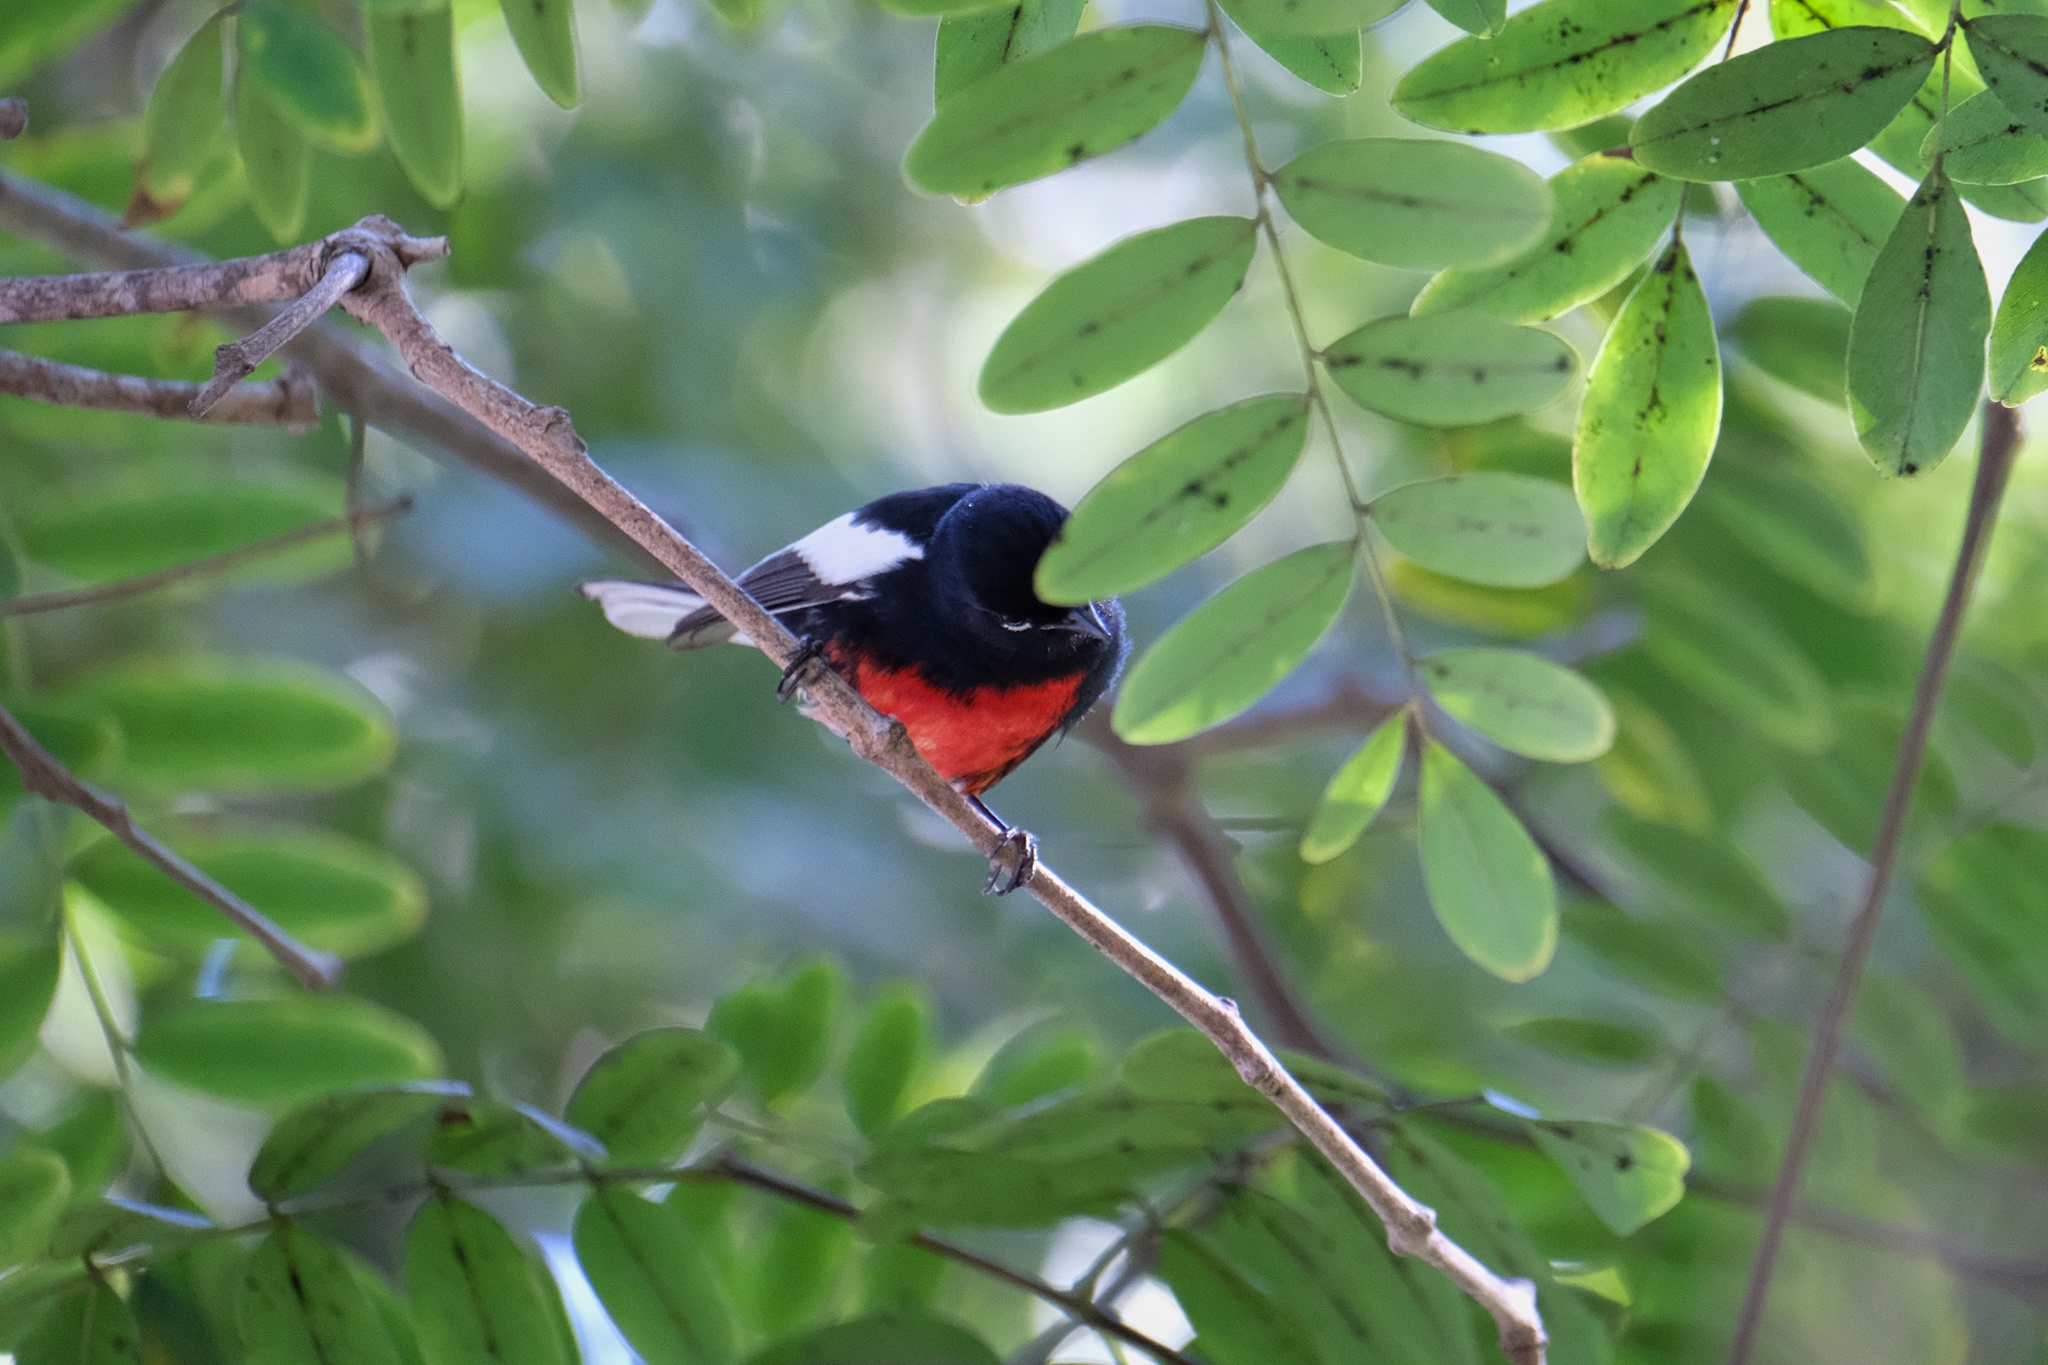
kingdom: Animalia
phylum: Chordata
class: Aves
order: Passeriformes
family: Parulidae
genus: Myioborus
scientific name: Myioborus pictus
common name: Painted whitestart
